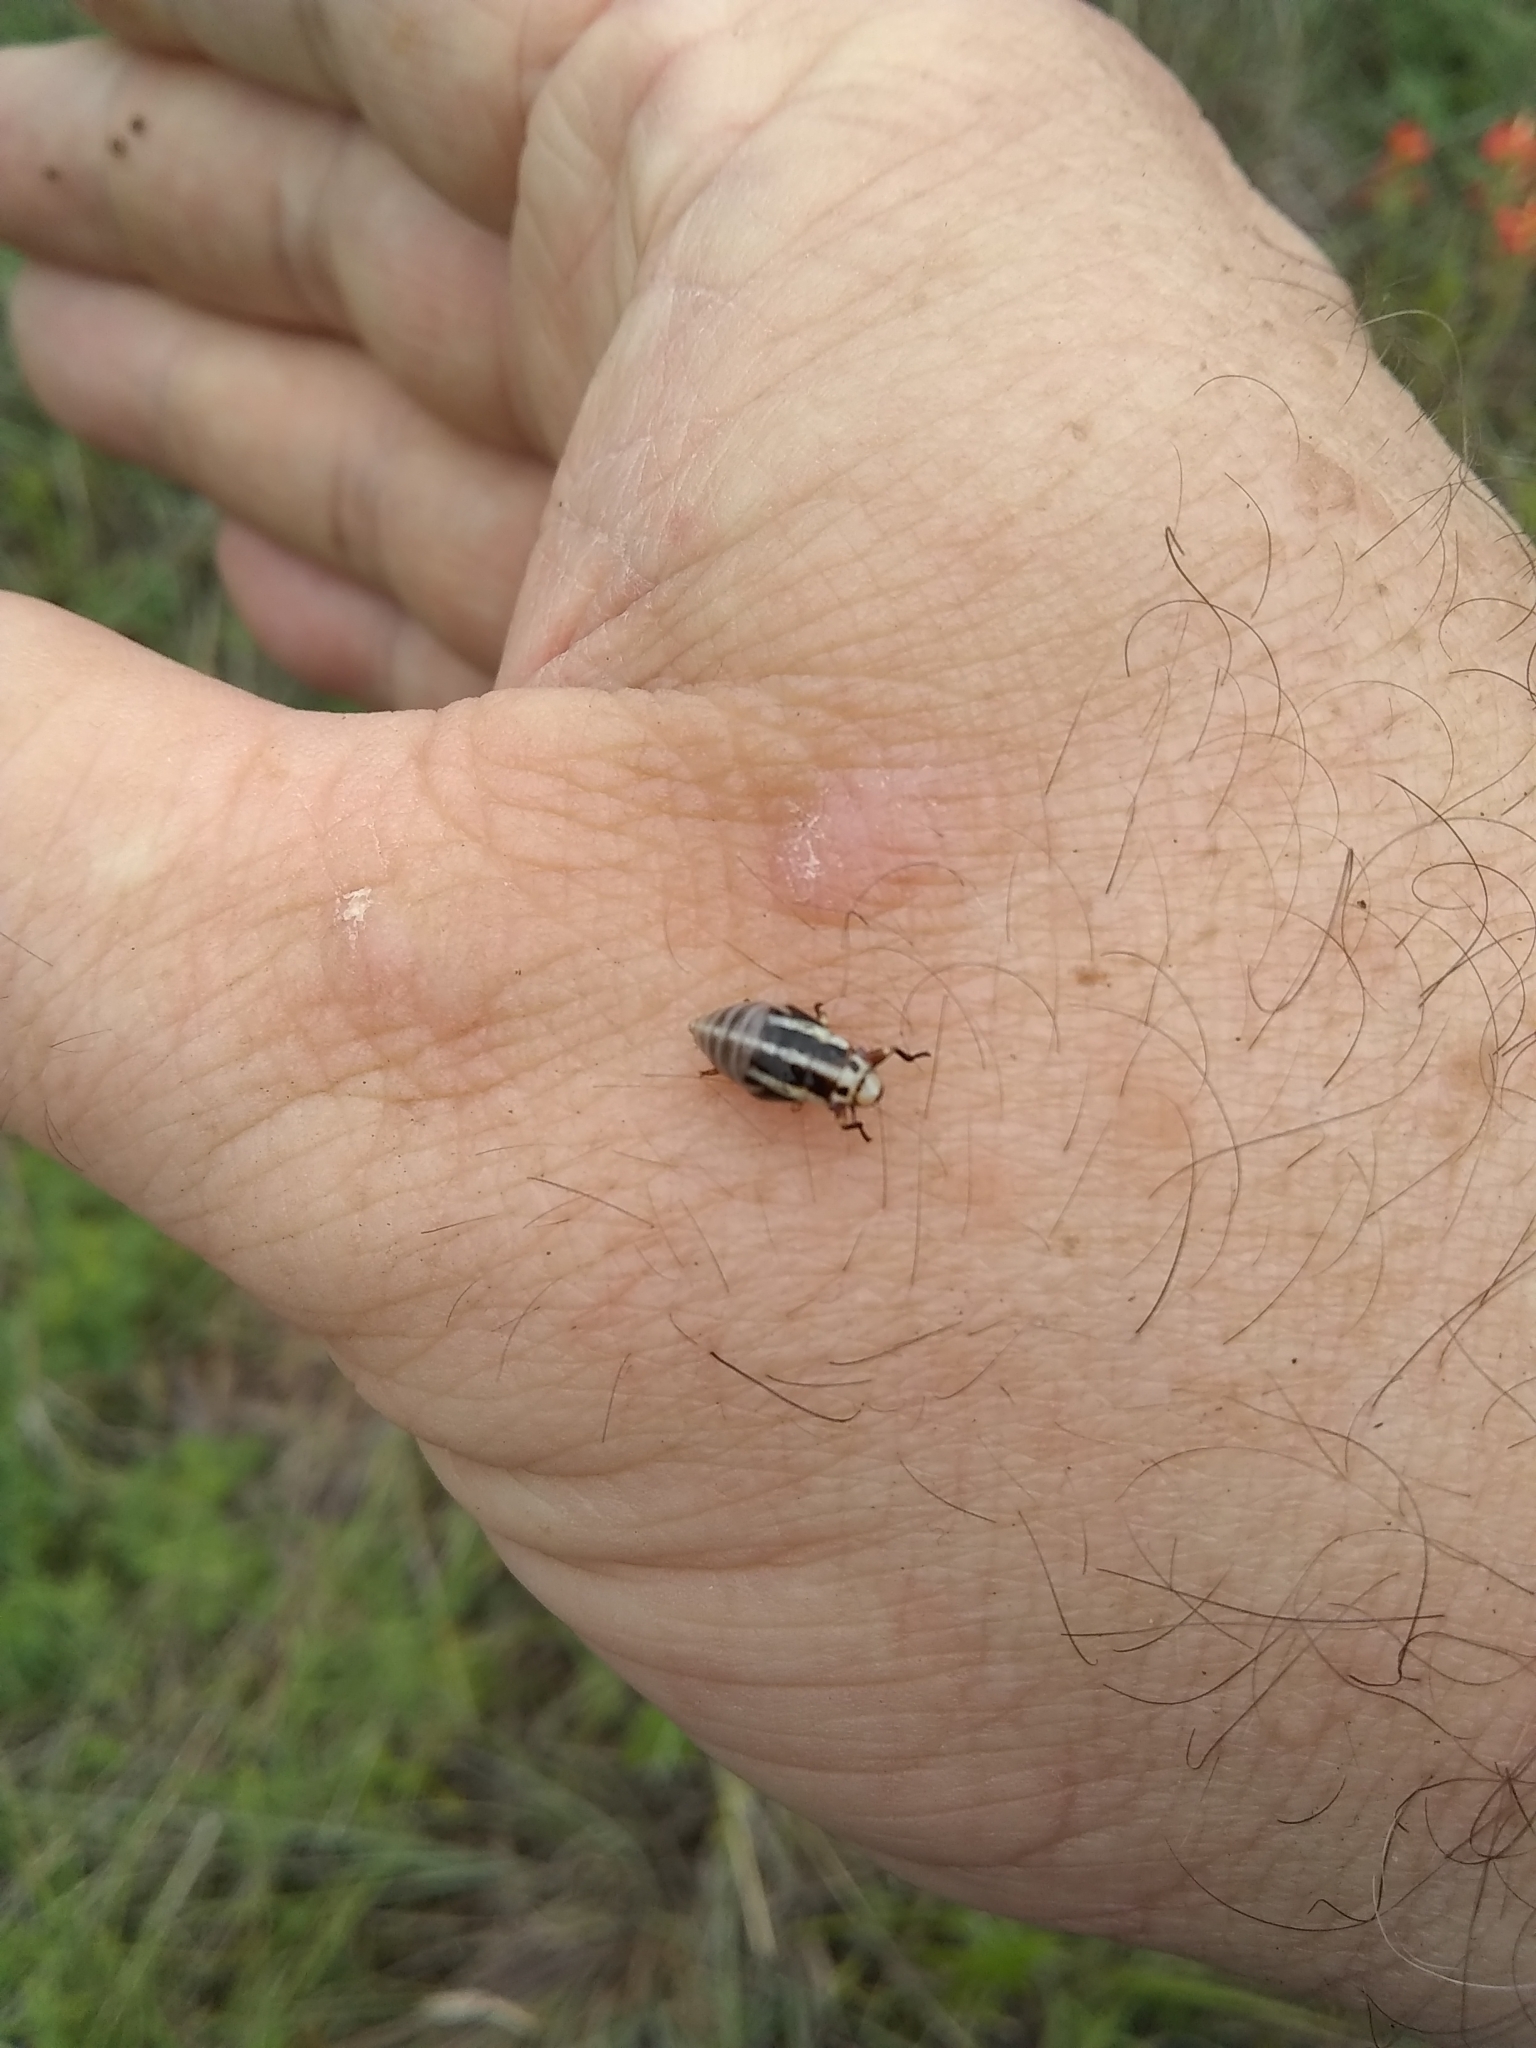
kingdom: Animalia
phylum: Arthropoda
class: Insecta
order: Hemiptera
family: Aphrophoridae
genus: Lepyronia
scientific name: Lepyronia gibbosa
